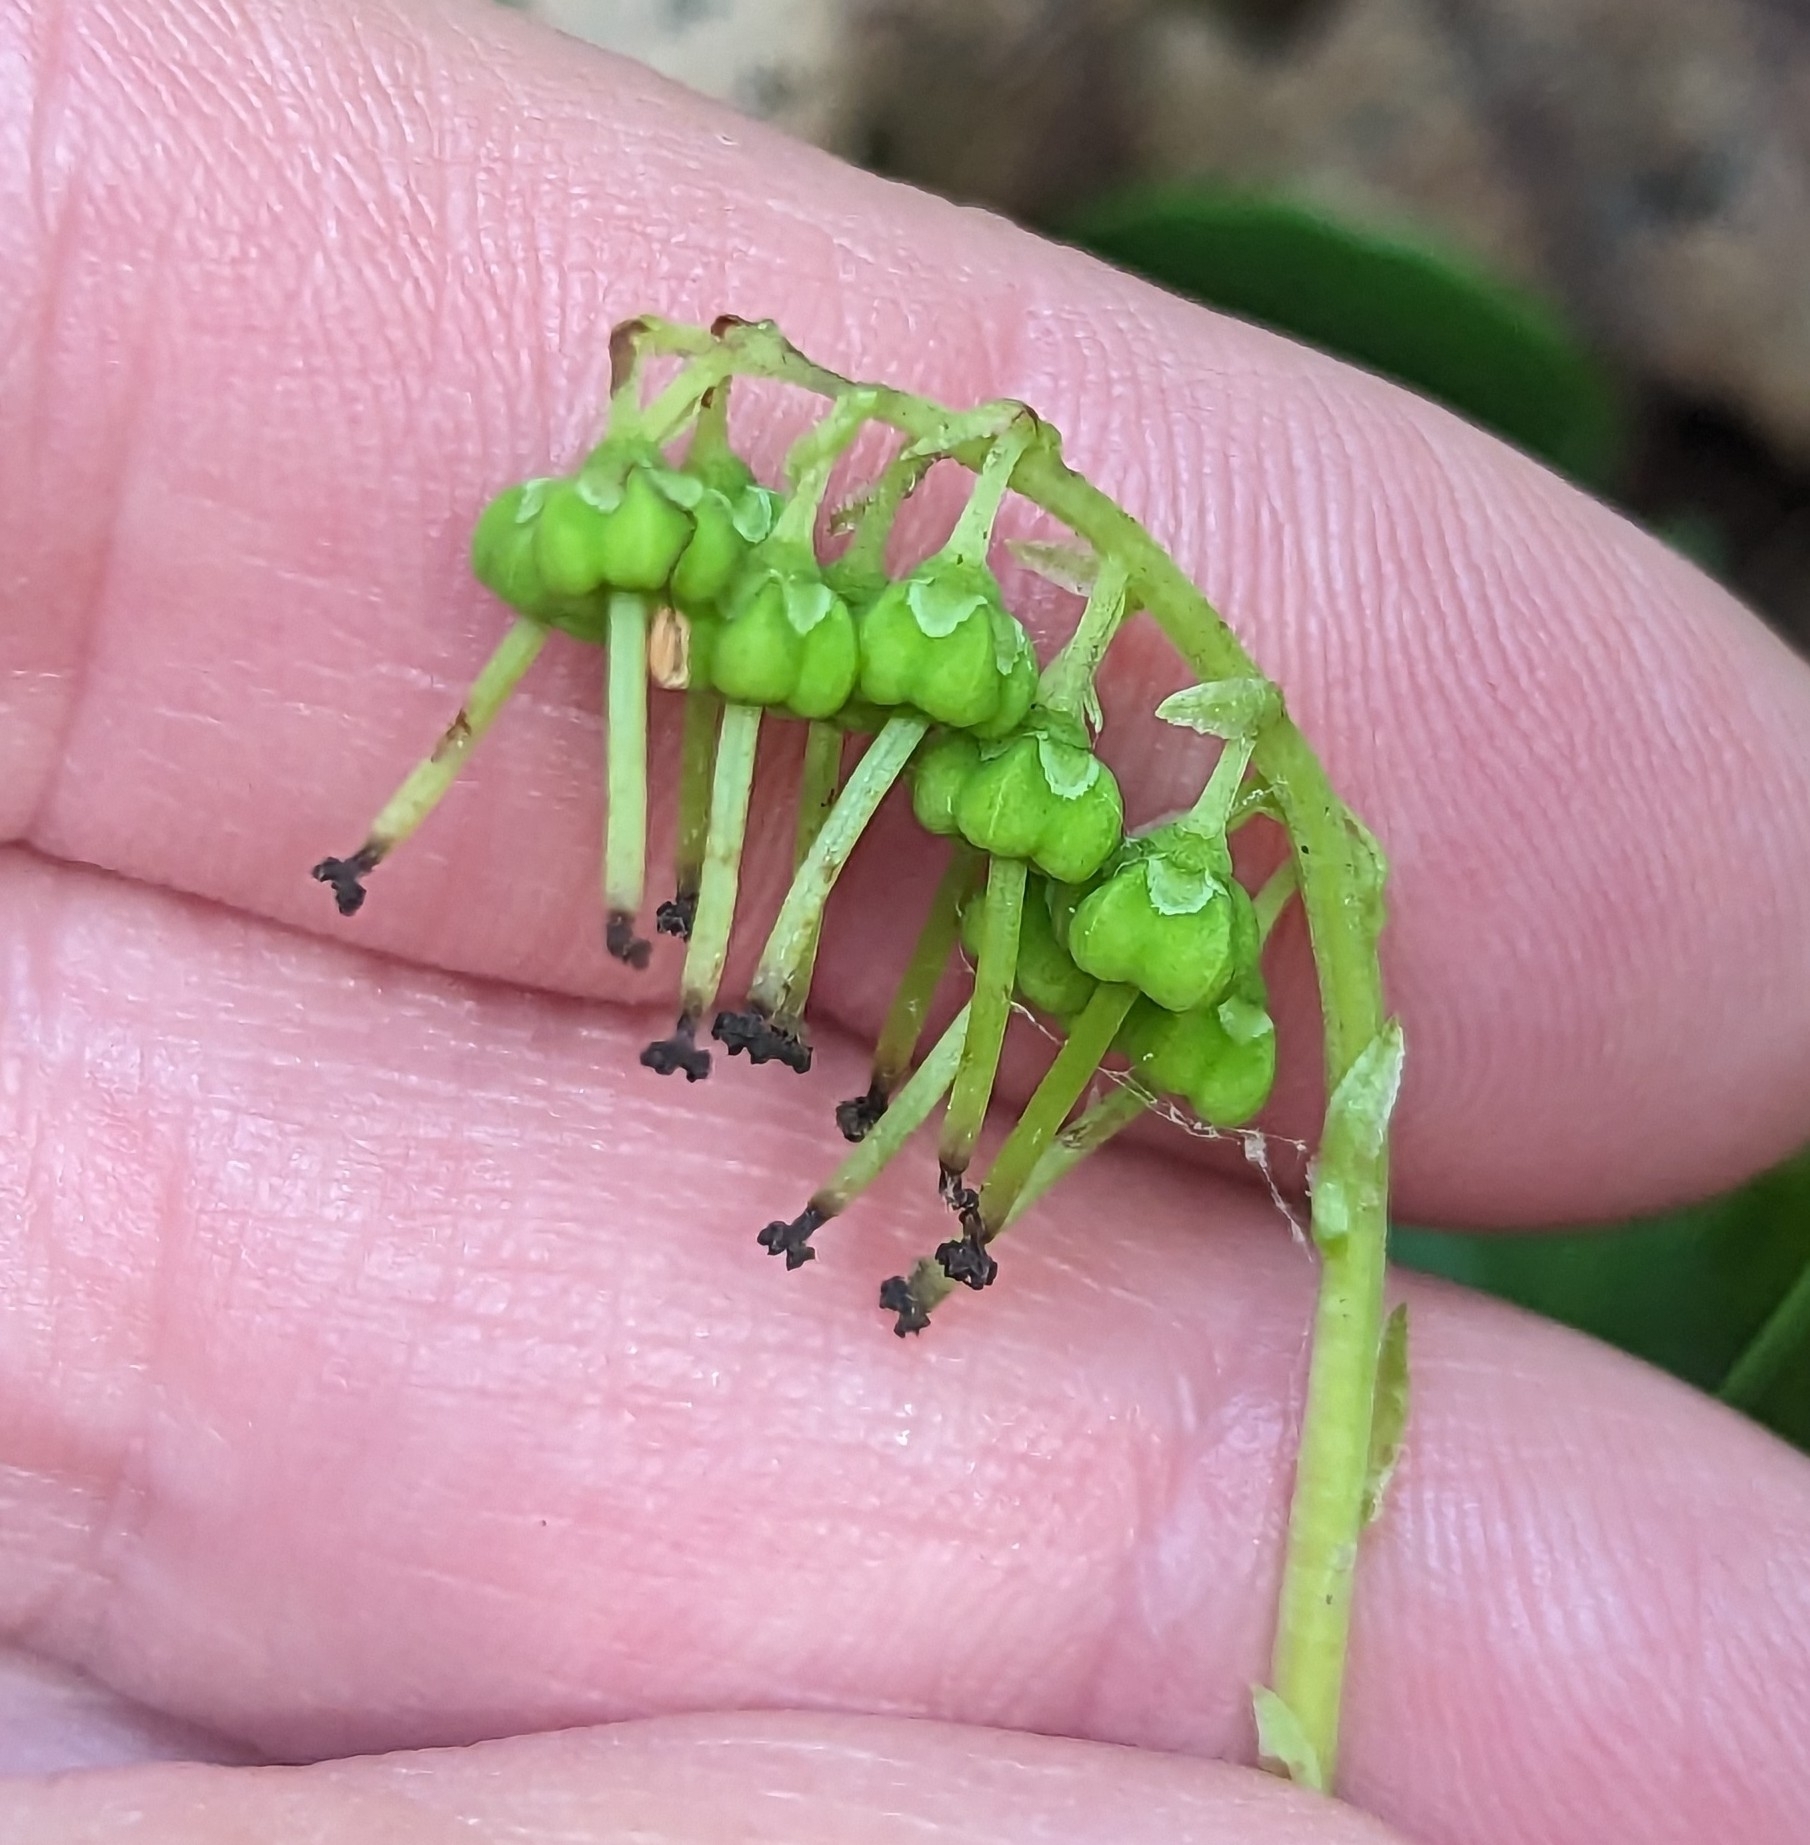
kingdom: Plantae
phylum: Tracheophyta
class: Magnoliopsida
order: Ericales
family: Ericaceae
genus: Orthilia
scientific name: Orthilia secunda
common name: One-sided orthilia
